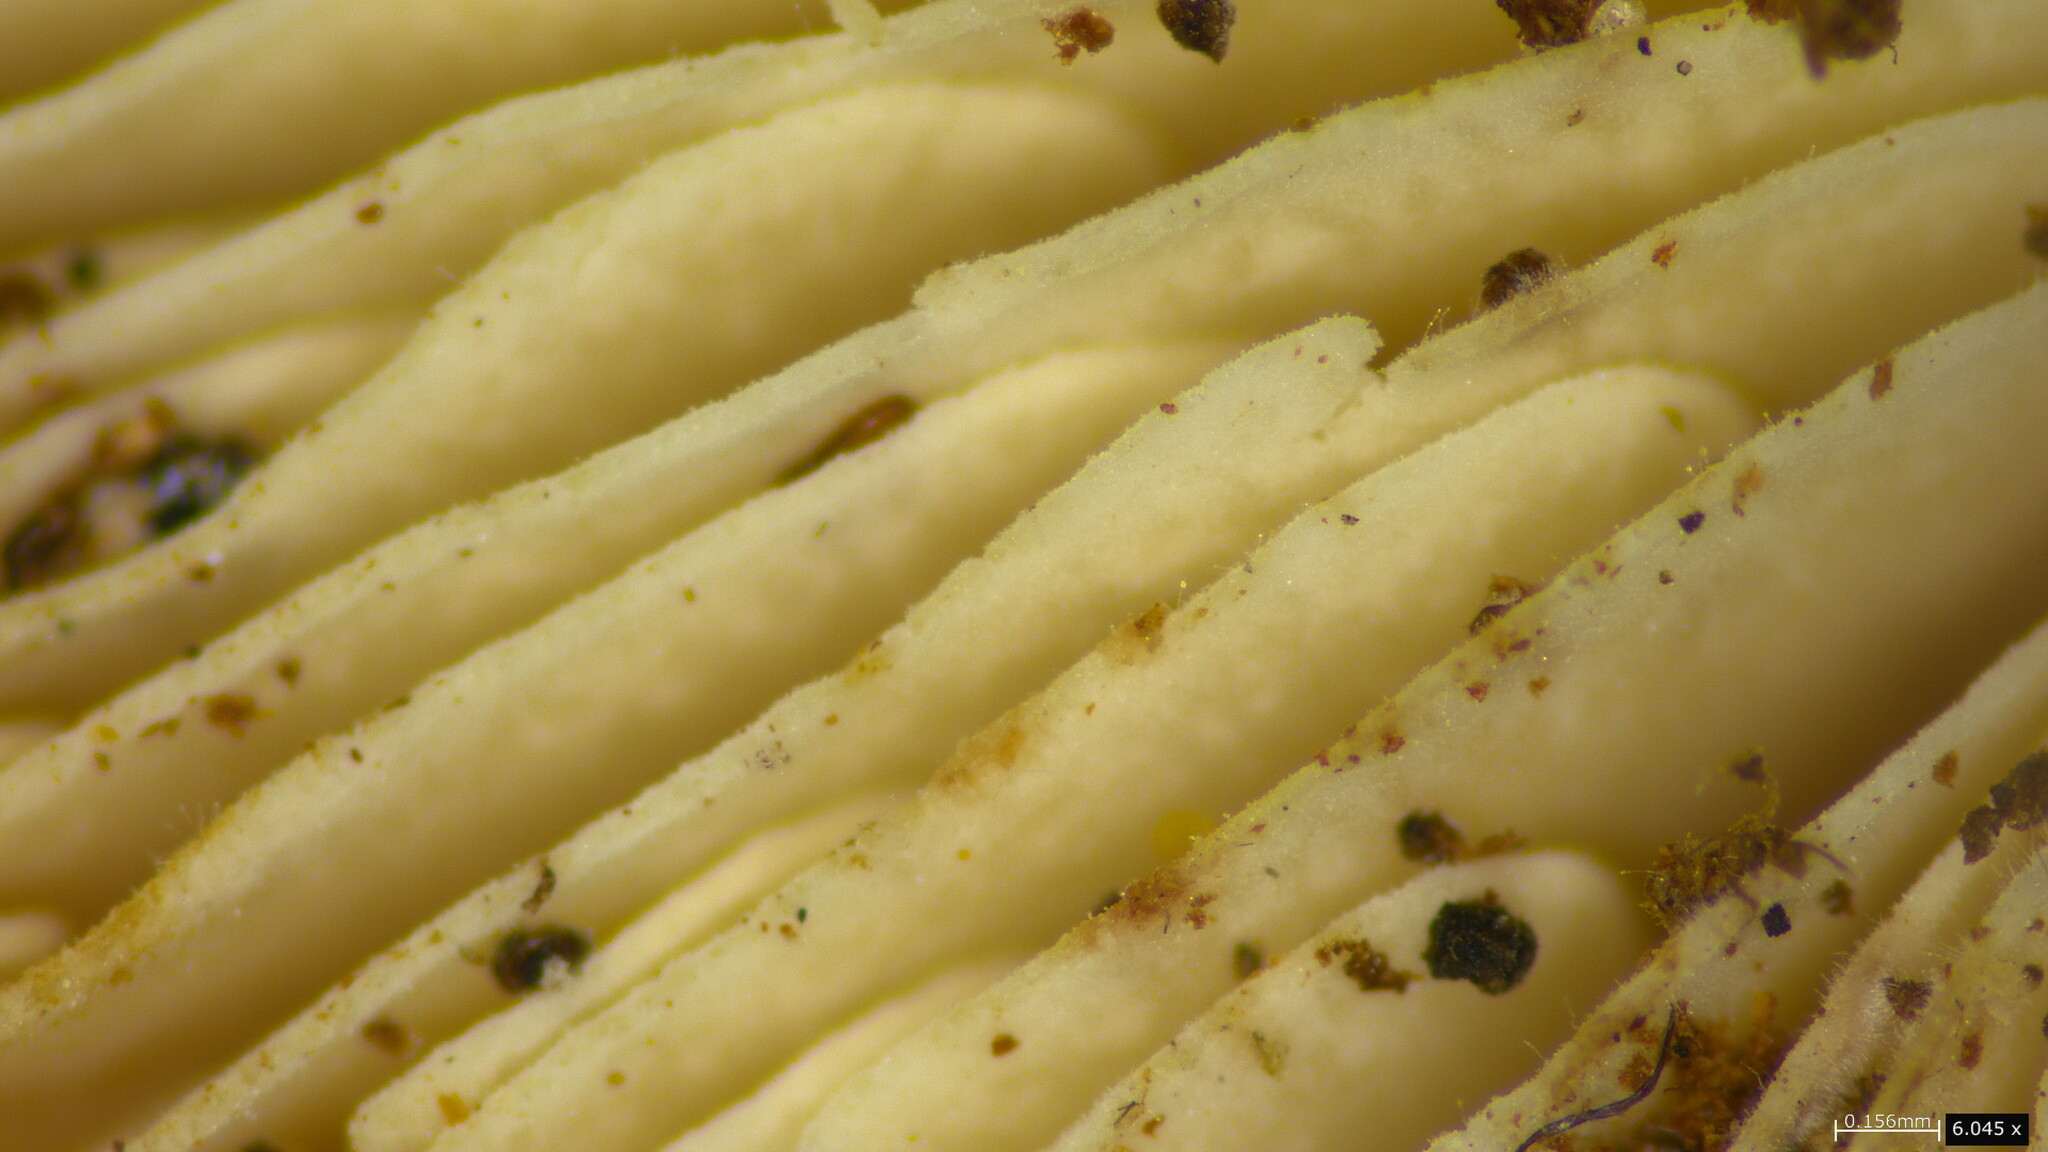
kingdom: Fungi
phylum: Basidiomycota
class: Agaricomycetes
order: Agaricales
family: Marasmiaceae
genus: Baeospora
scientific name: Baeospora myosura
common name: Conifercone cap
